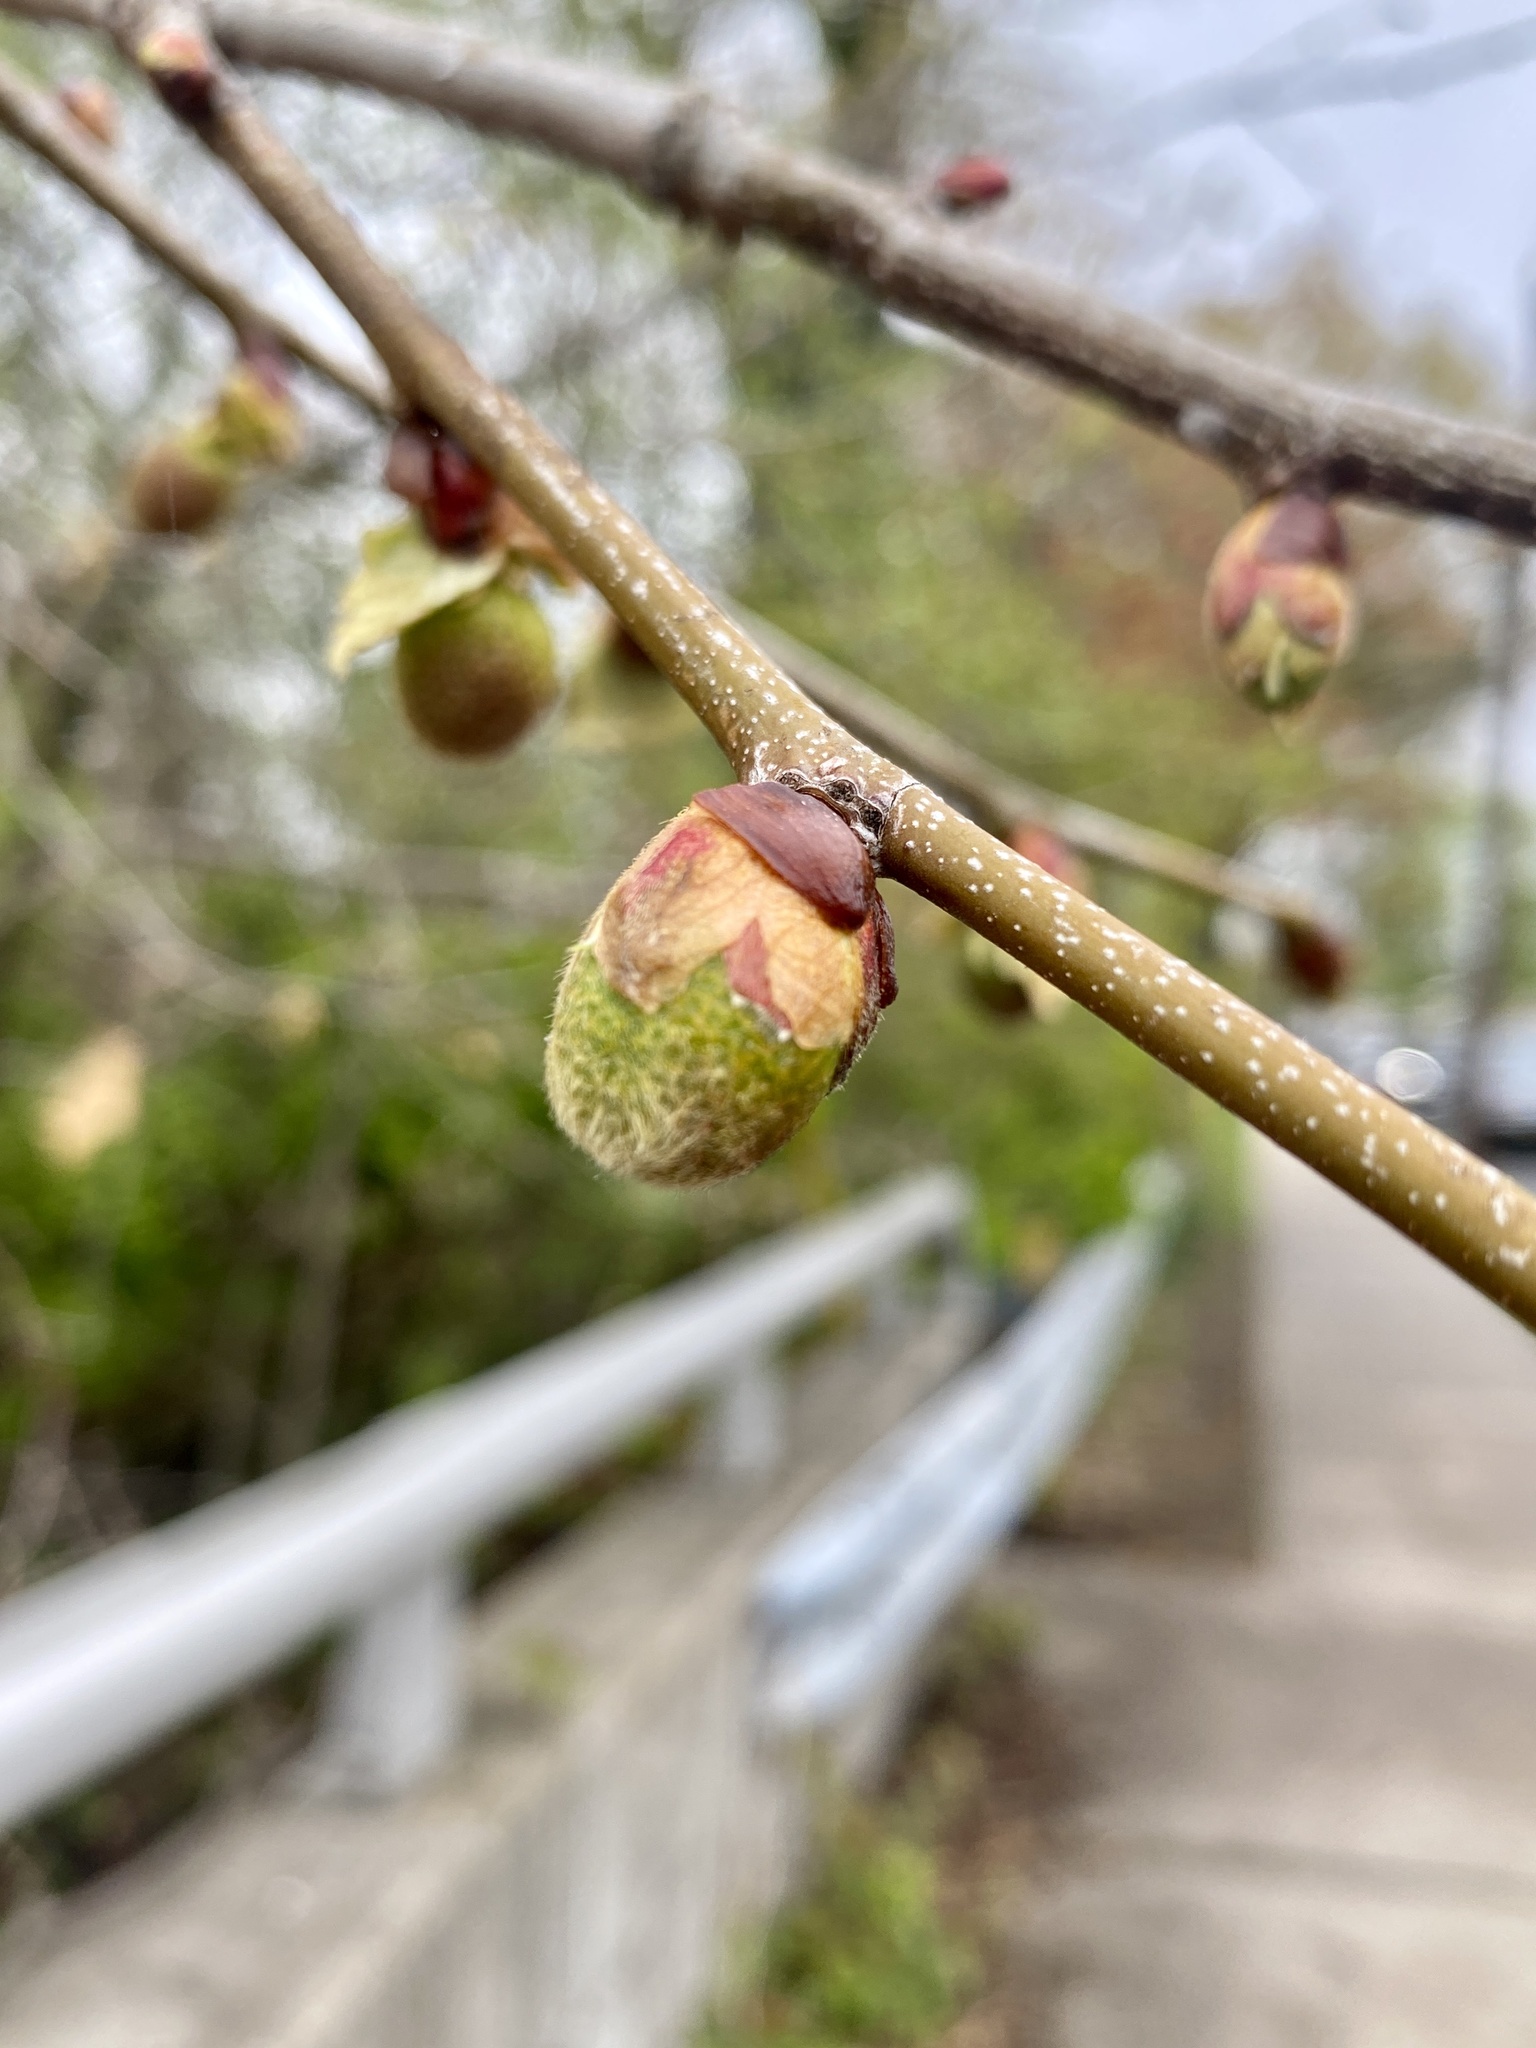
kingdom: Plantae
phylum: Tracheophyta
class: Magnoliopsida
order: Proteales
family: Platanaceae
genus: Platanus
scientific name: Platanus occidentalis
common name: American sycamore
